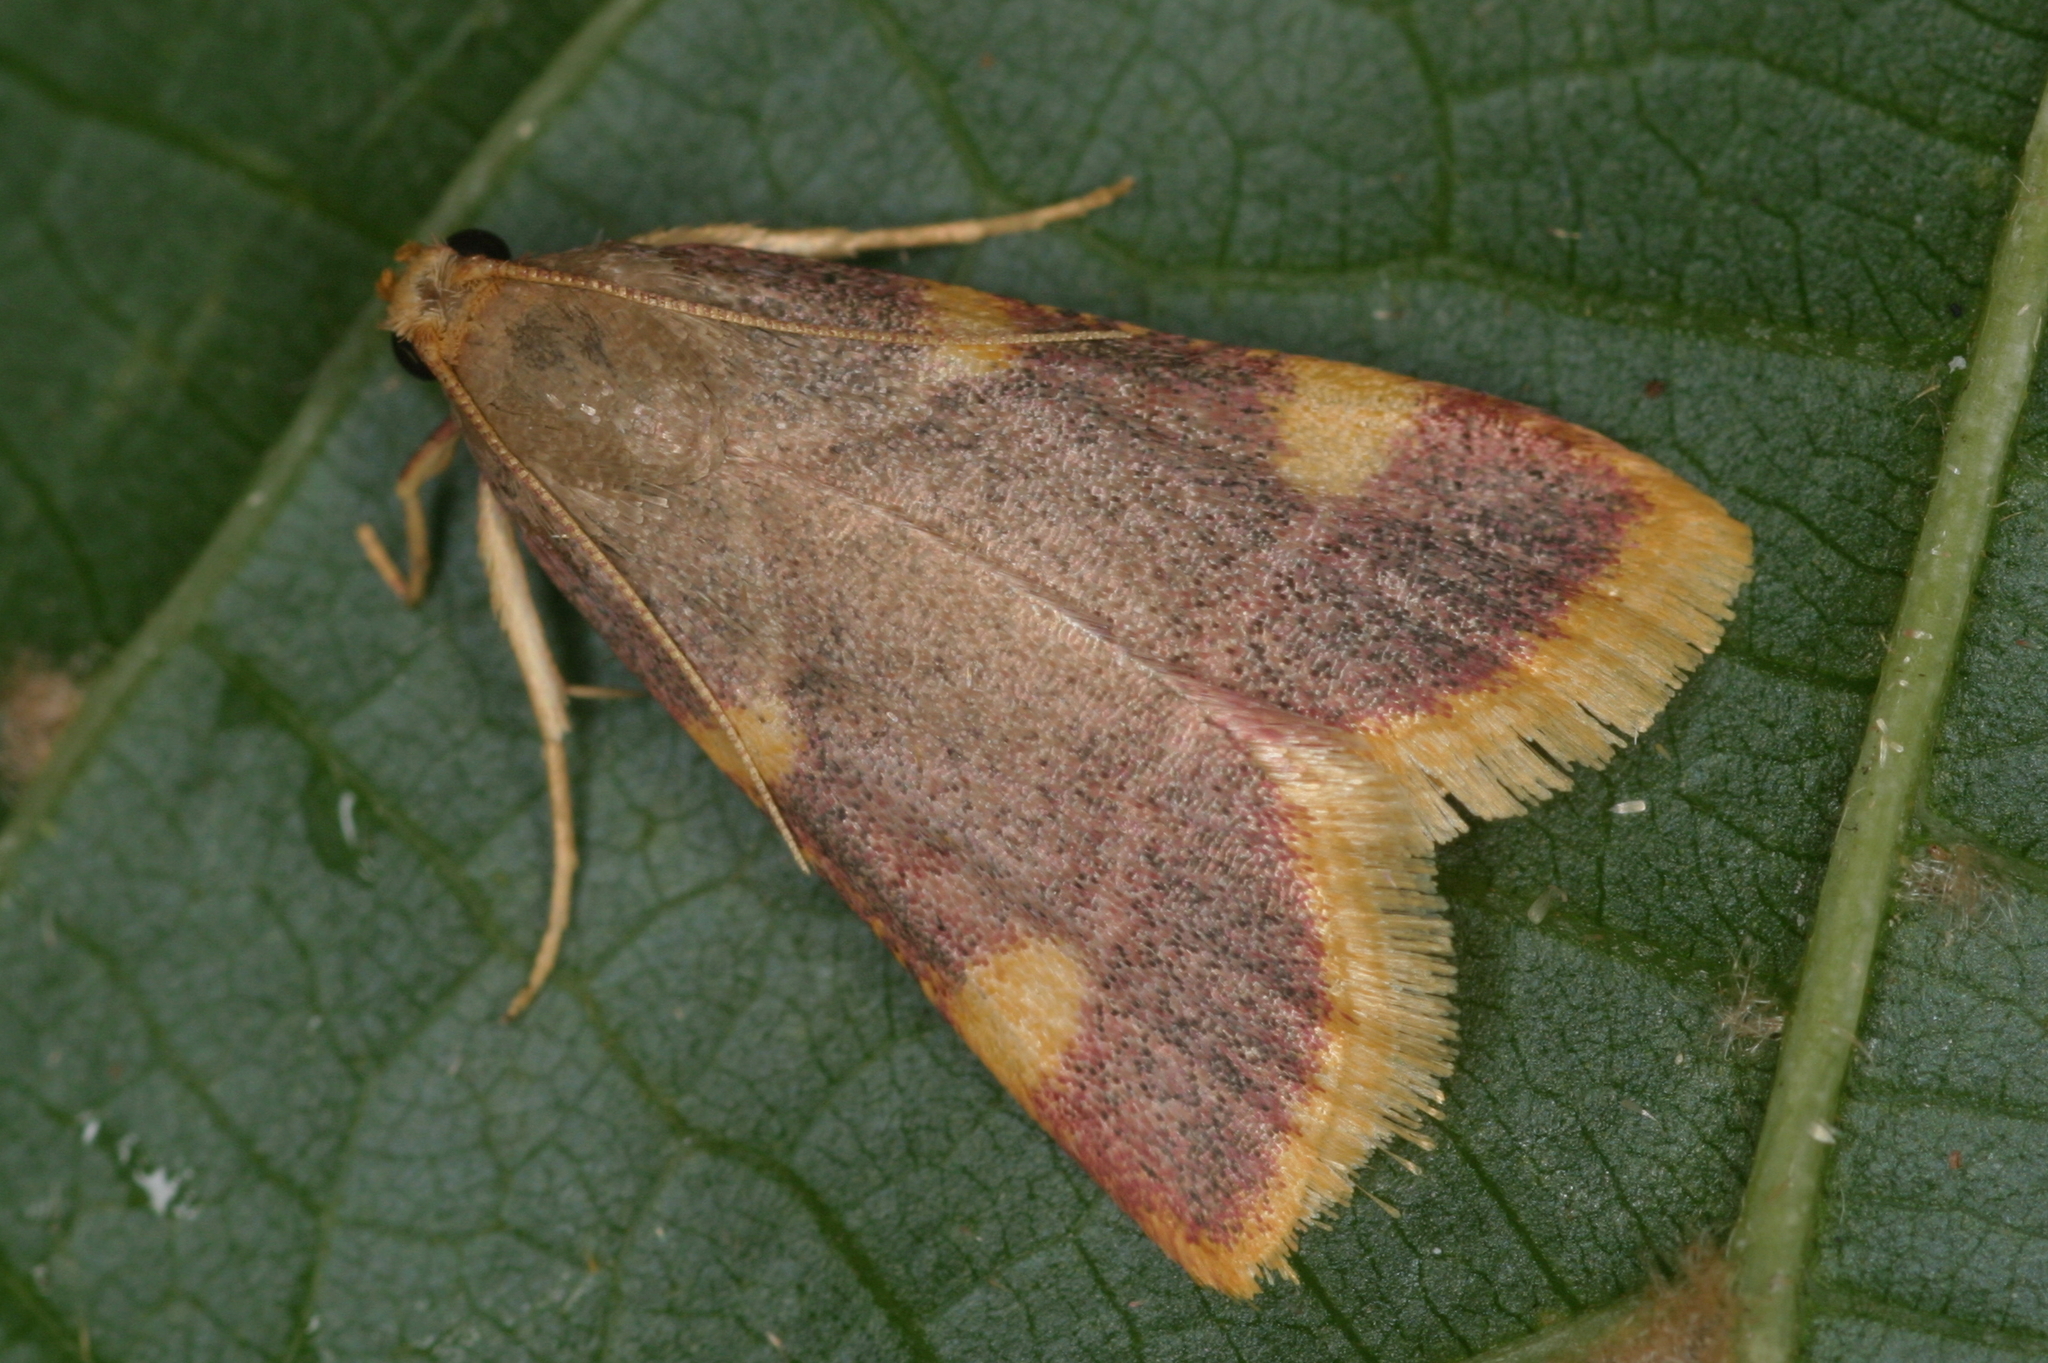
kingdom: Animalia
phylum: Arthropoda
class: Insecta
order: Lepidoptera
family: Pyralidae
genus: Hypsopygia
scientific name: Hypsopygia costalis
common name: Gold triangle
